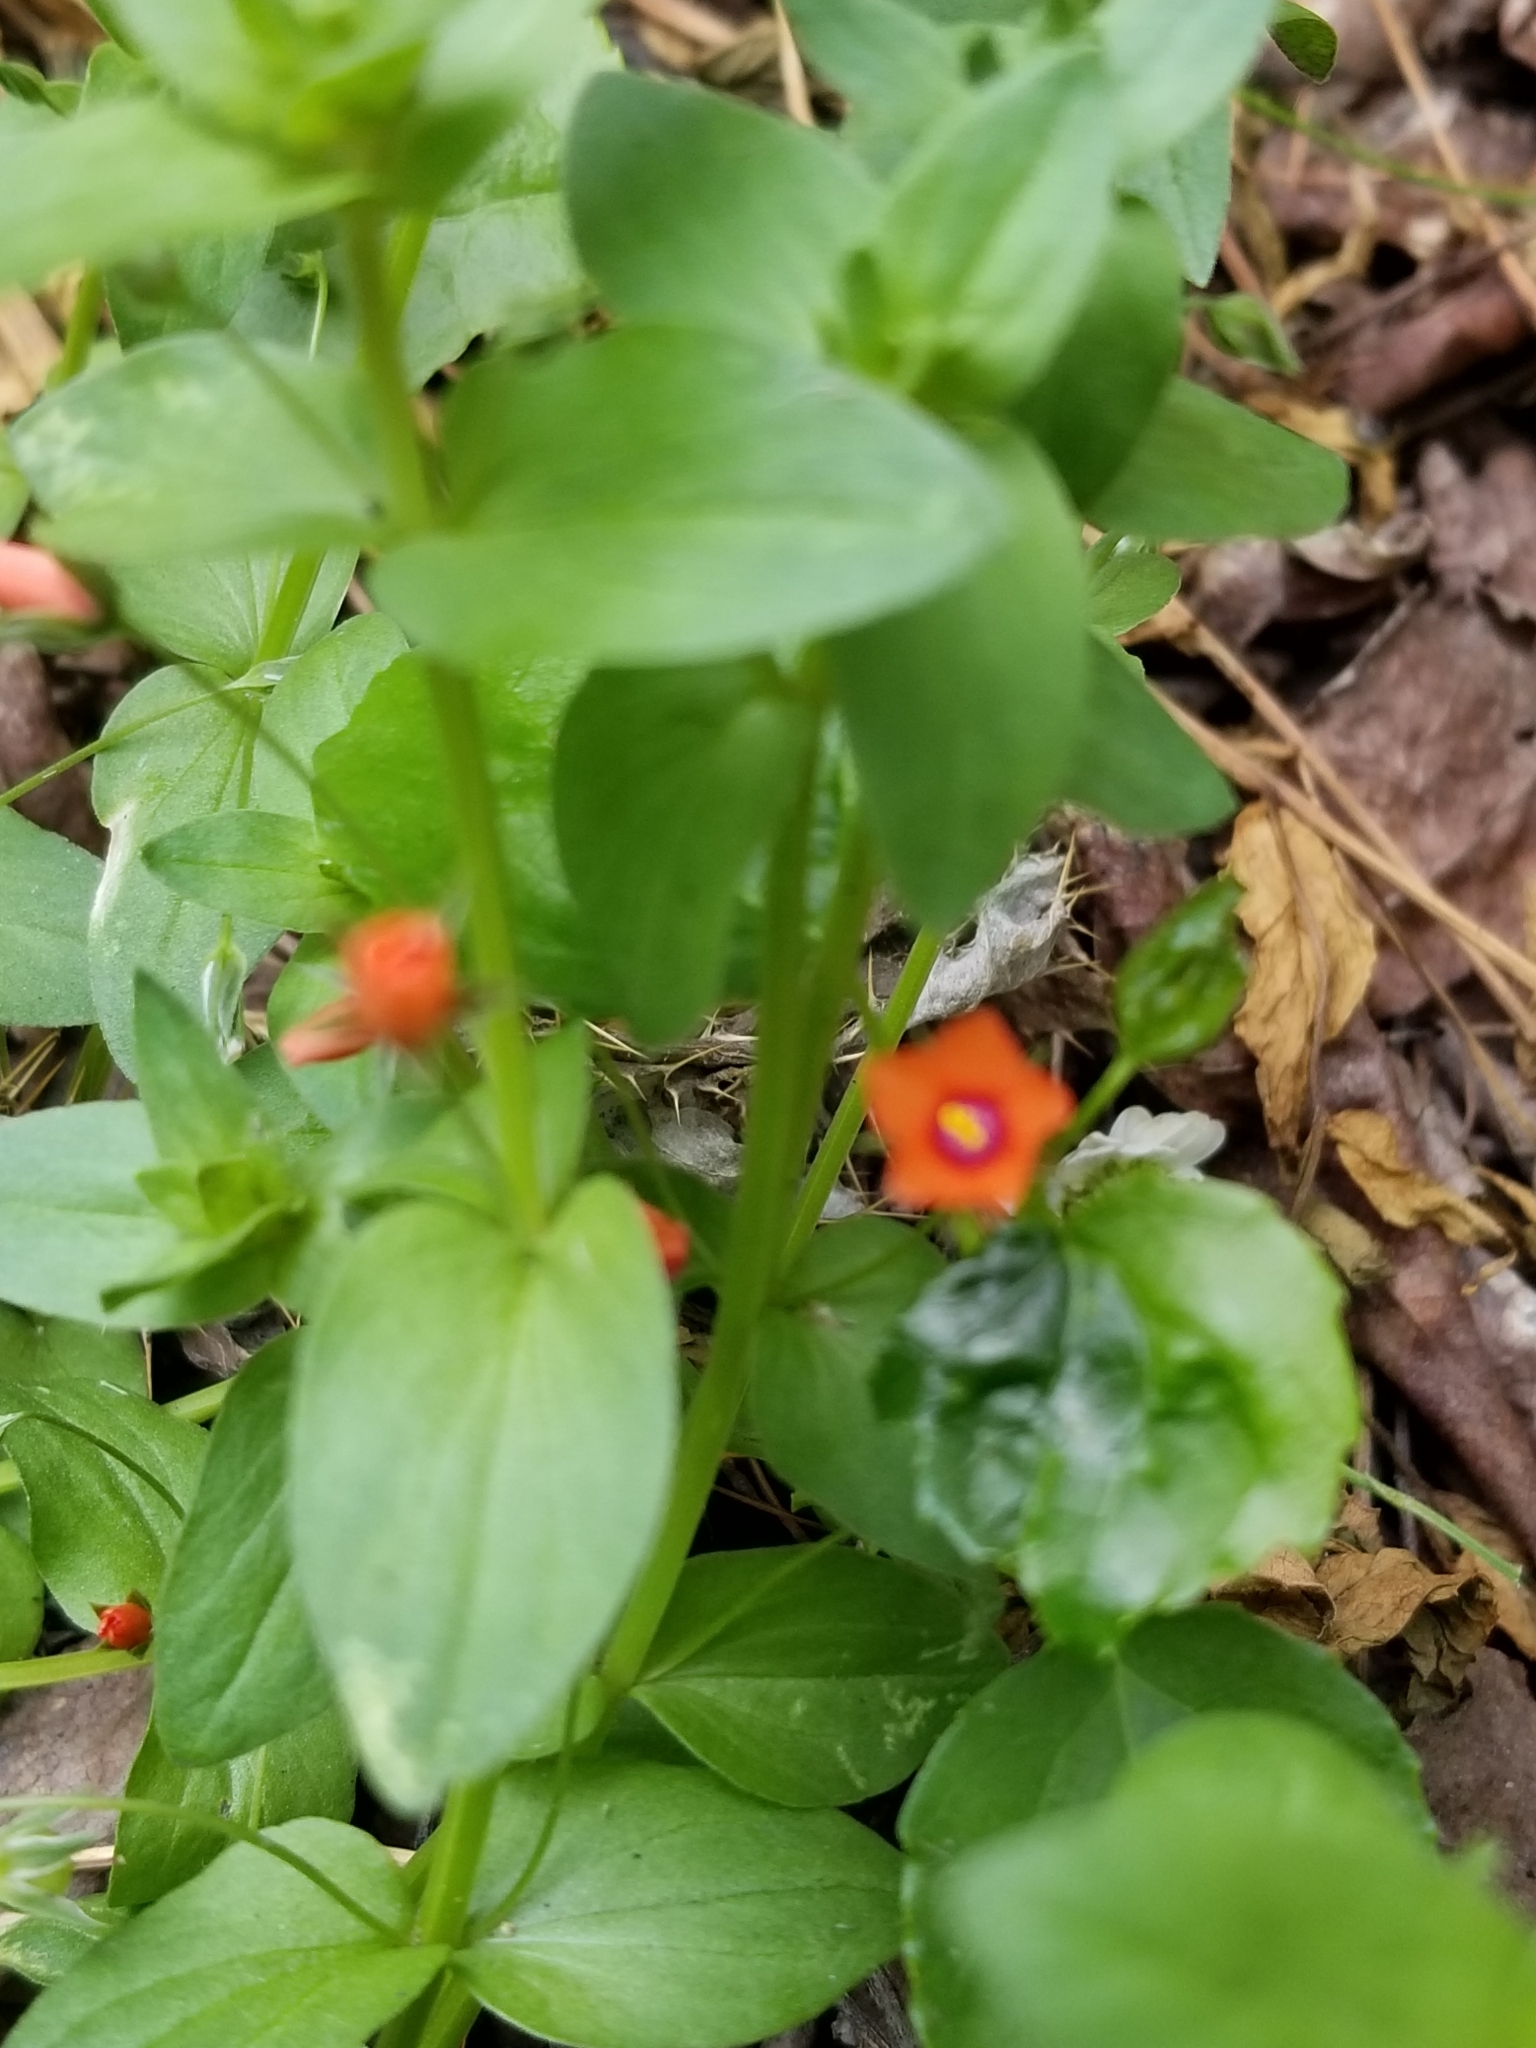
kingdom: Plantae
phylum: Tracheophyta
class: Magnoliopsida
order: Ericales
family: Primulaceae
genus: Lysimachia
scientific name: Lysimachia arvensis
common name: Scarlet pimpernel
